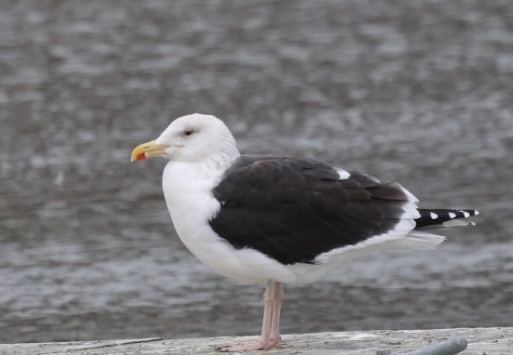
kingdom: Animalia
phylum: Chordata
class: Aves
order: Charadriiformes
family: Laridae
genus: Larus
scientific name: Larus marinus
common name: Great black-backed gull
